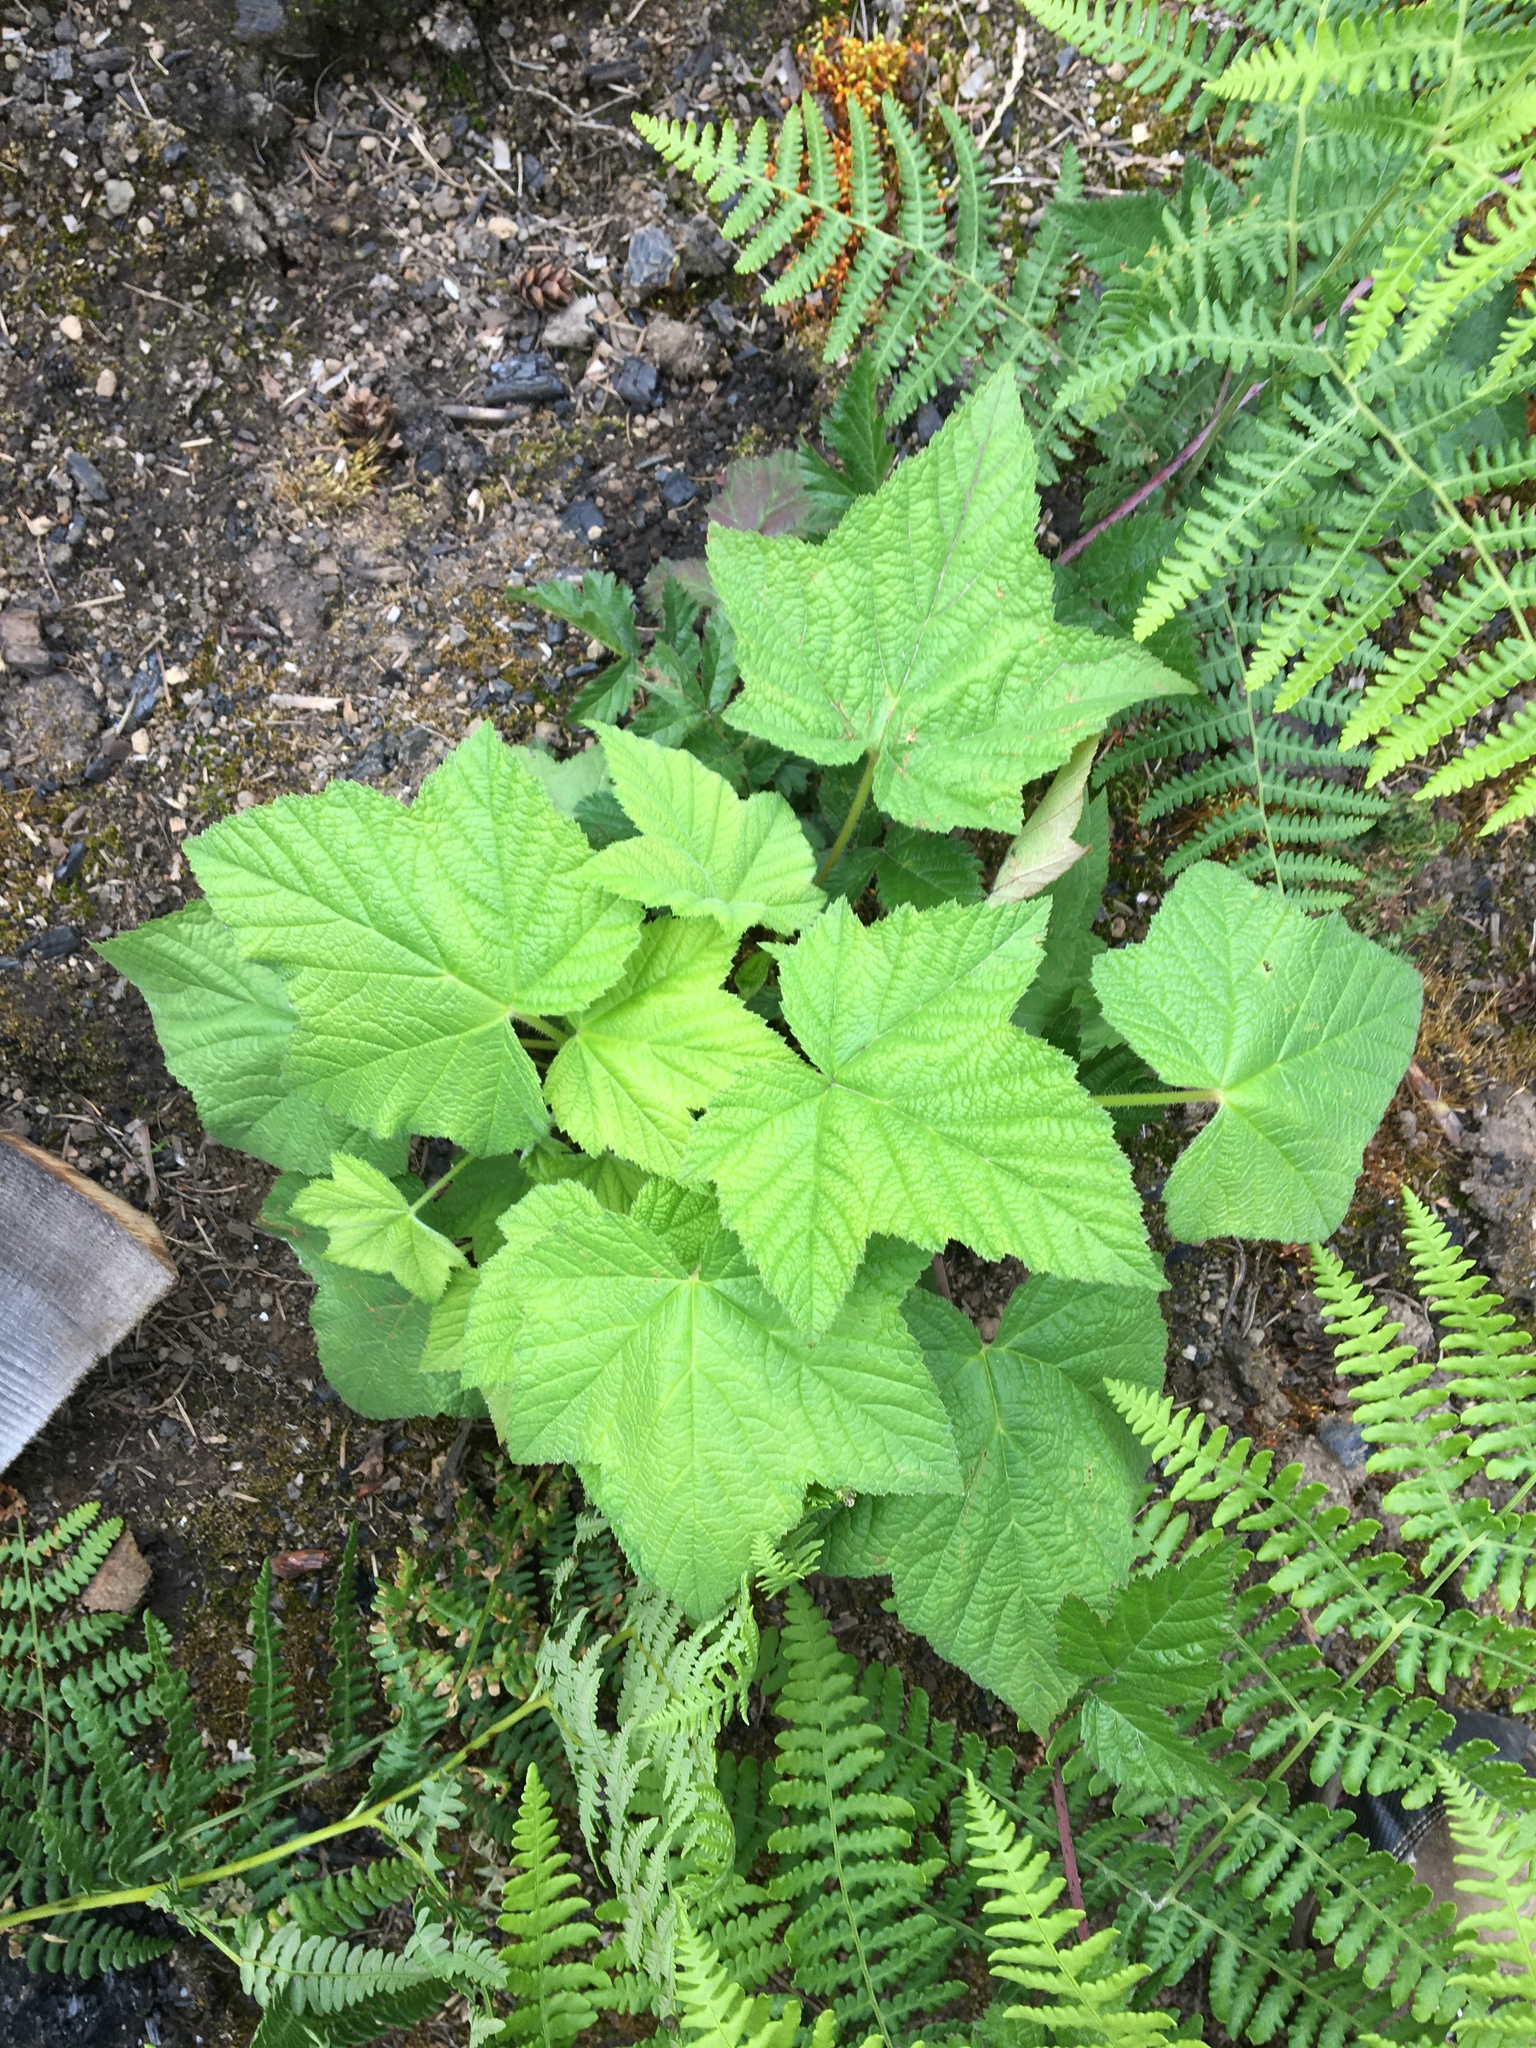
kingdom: Plantae
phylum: Tracheophyta
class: Magnoliopsida
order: Rosales
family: Rosaceae
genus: Rubus
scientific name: Rubus parviflorus
